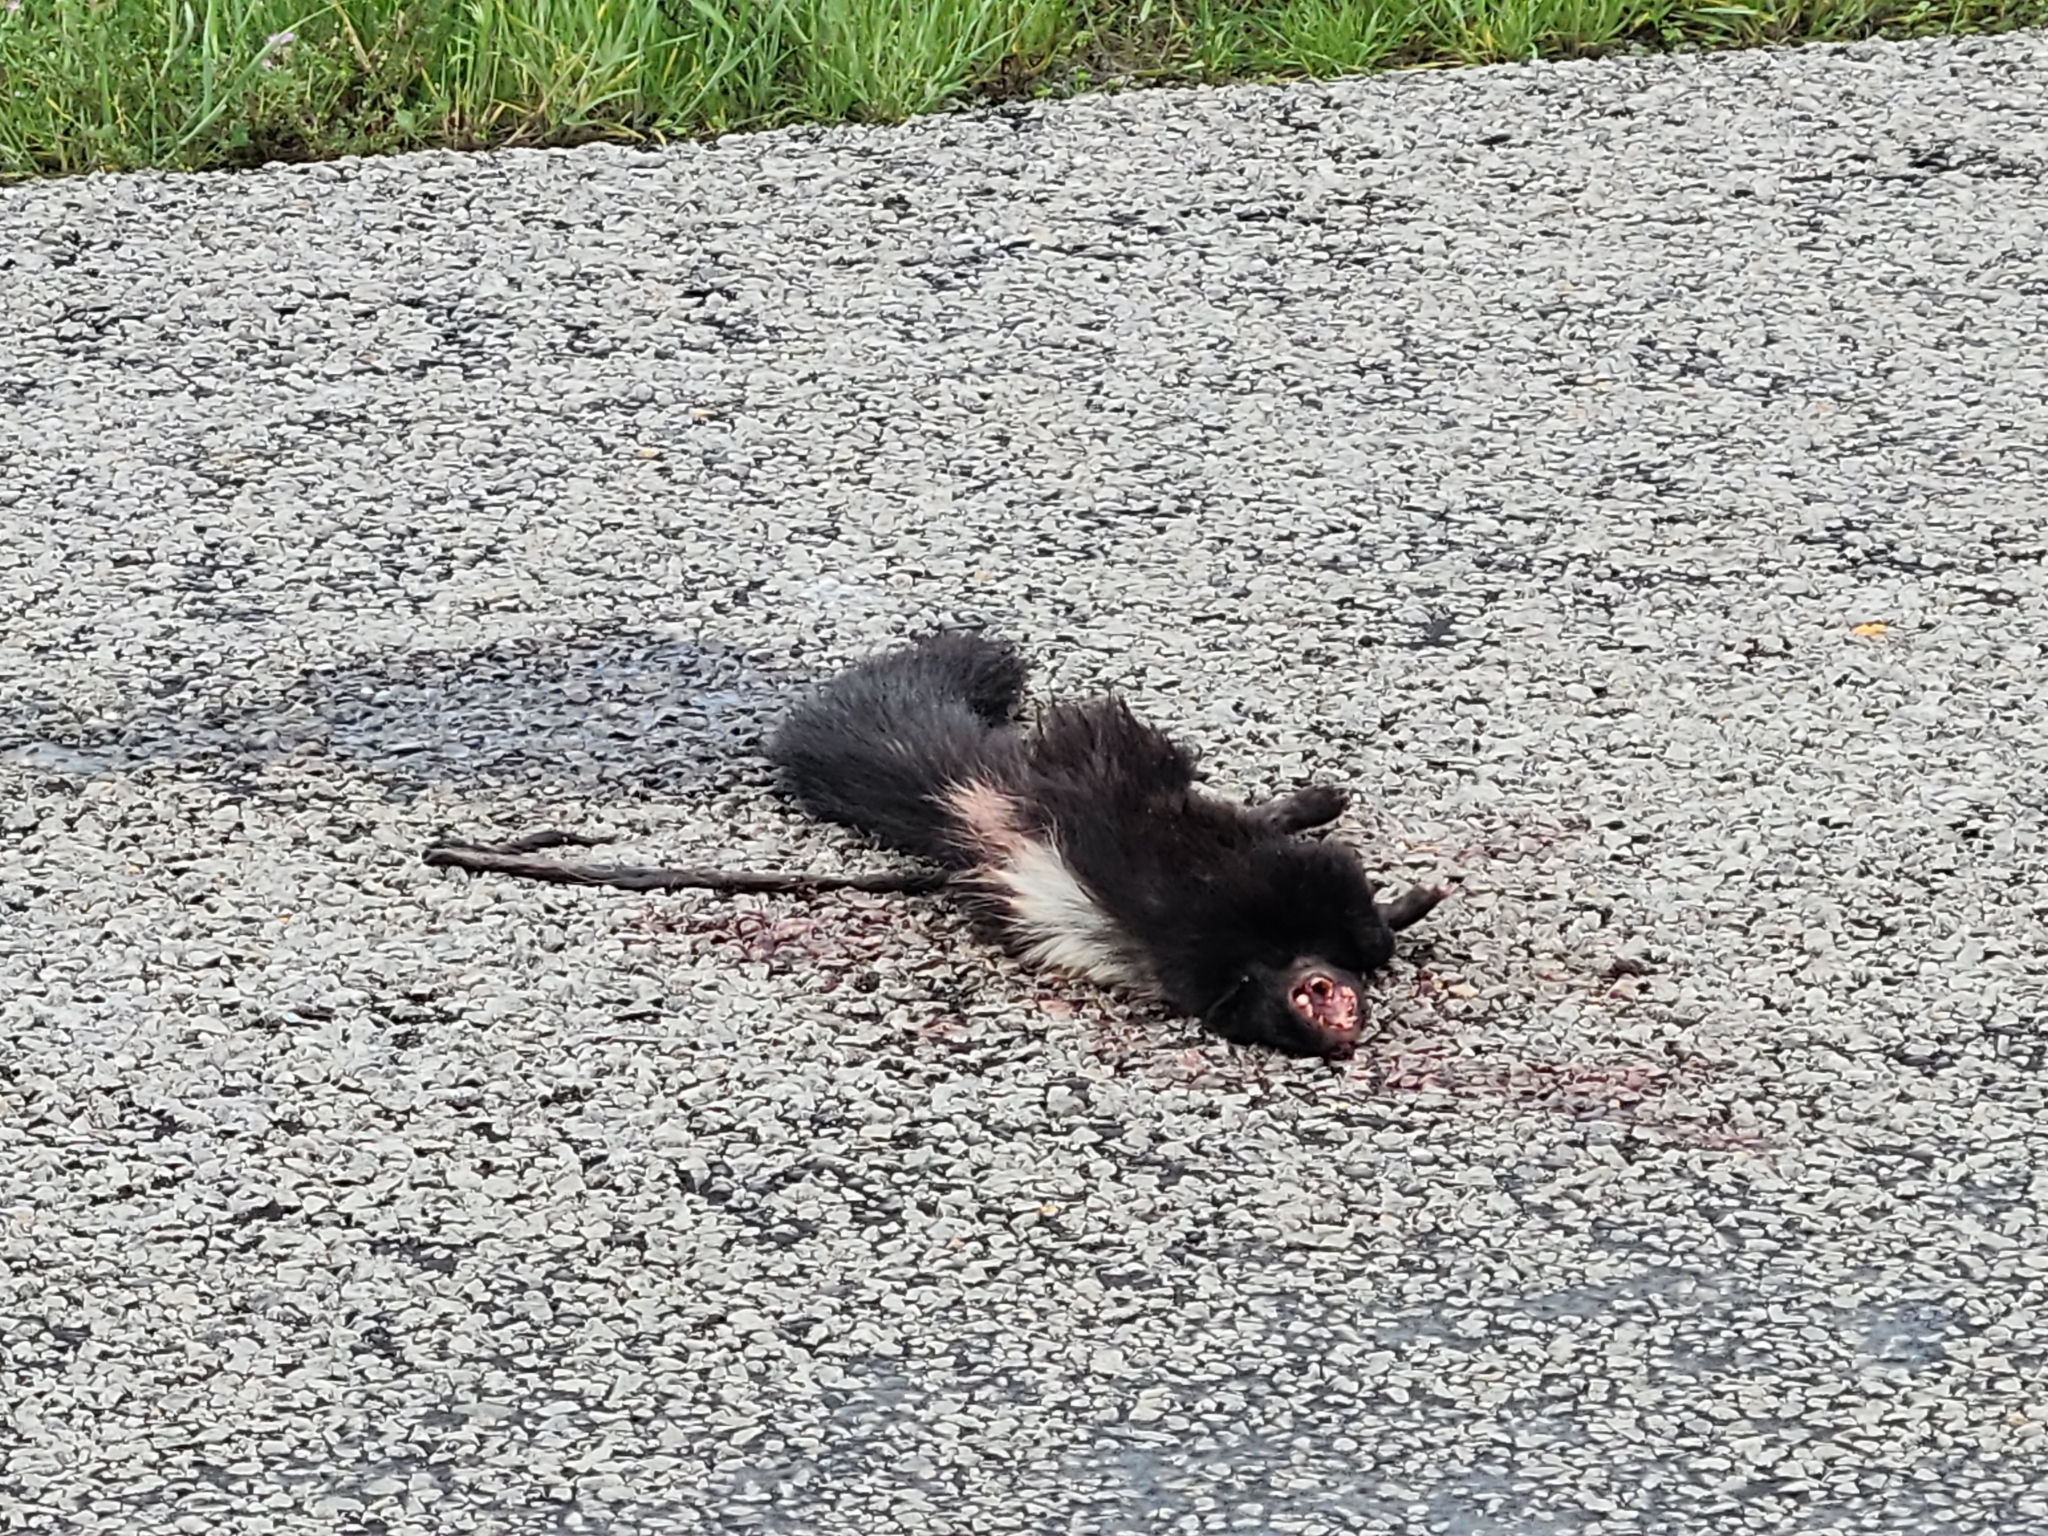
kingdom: Animalia
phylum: Chordata
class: Mammalia
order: Carnivora
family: Mephitidae
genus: Mephitis
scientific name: Mephitis mephitis
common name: Striped skunk
